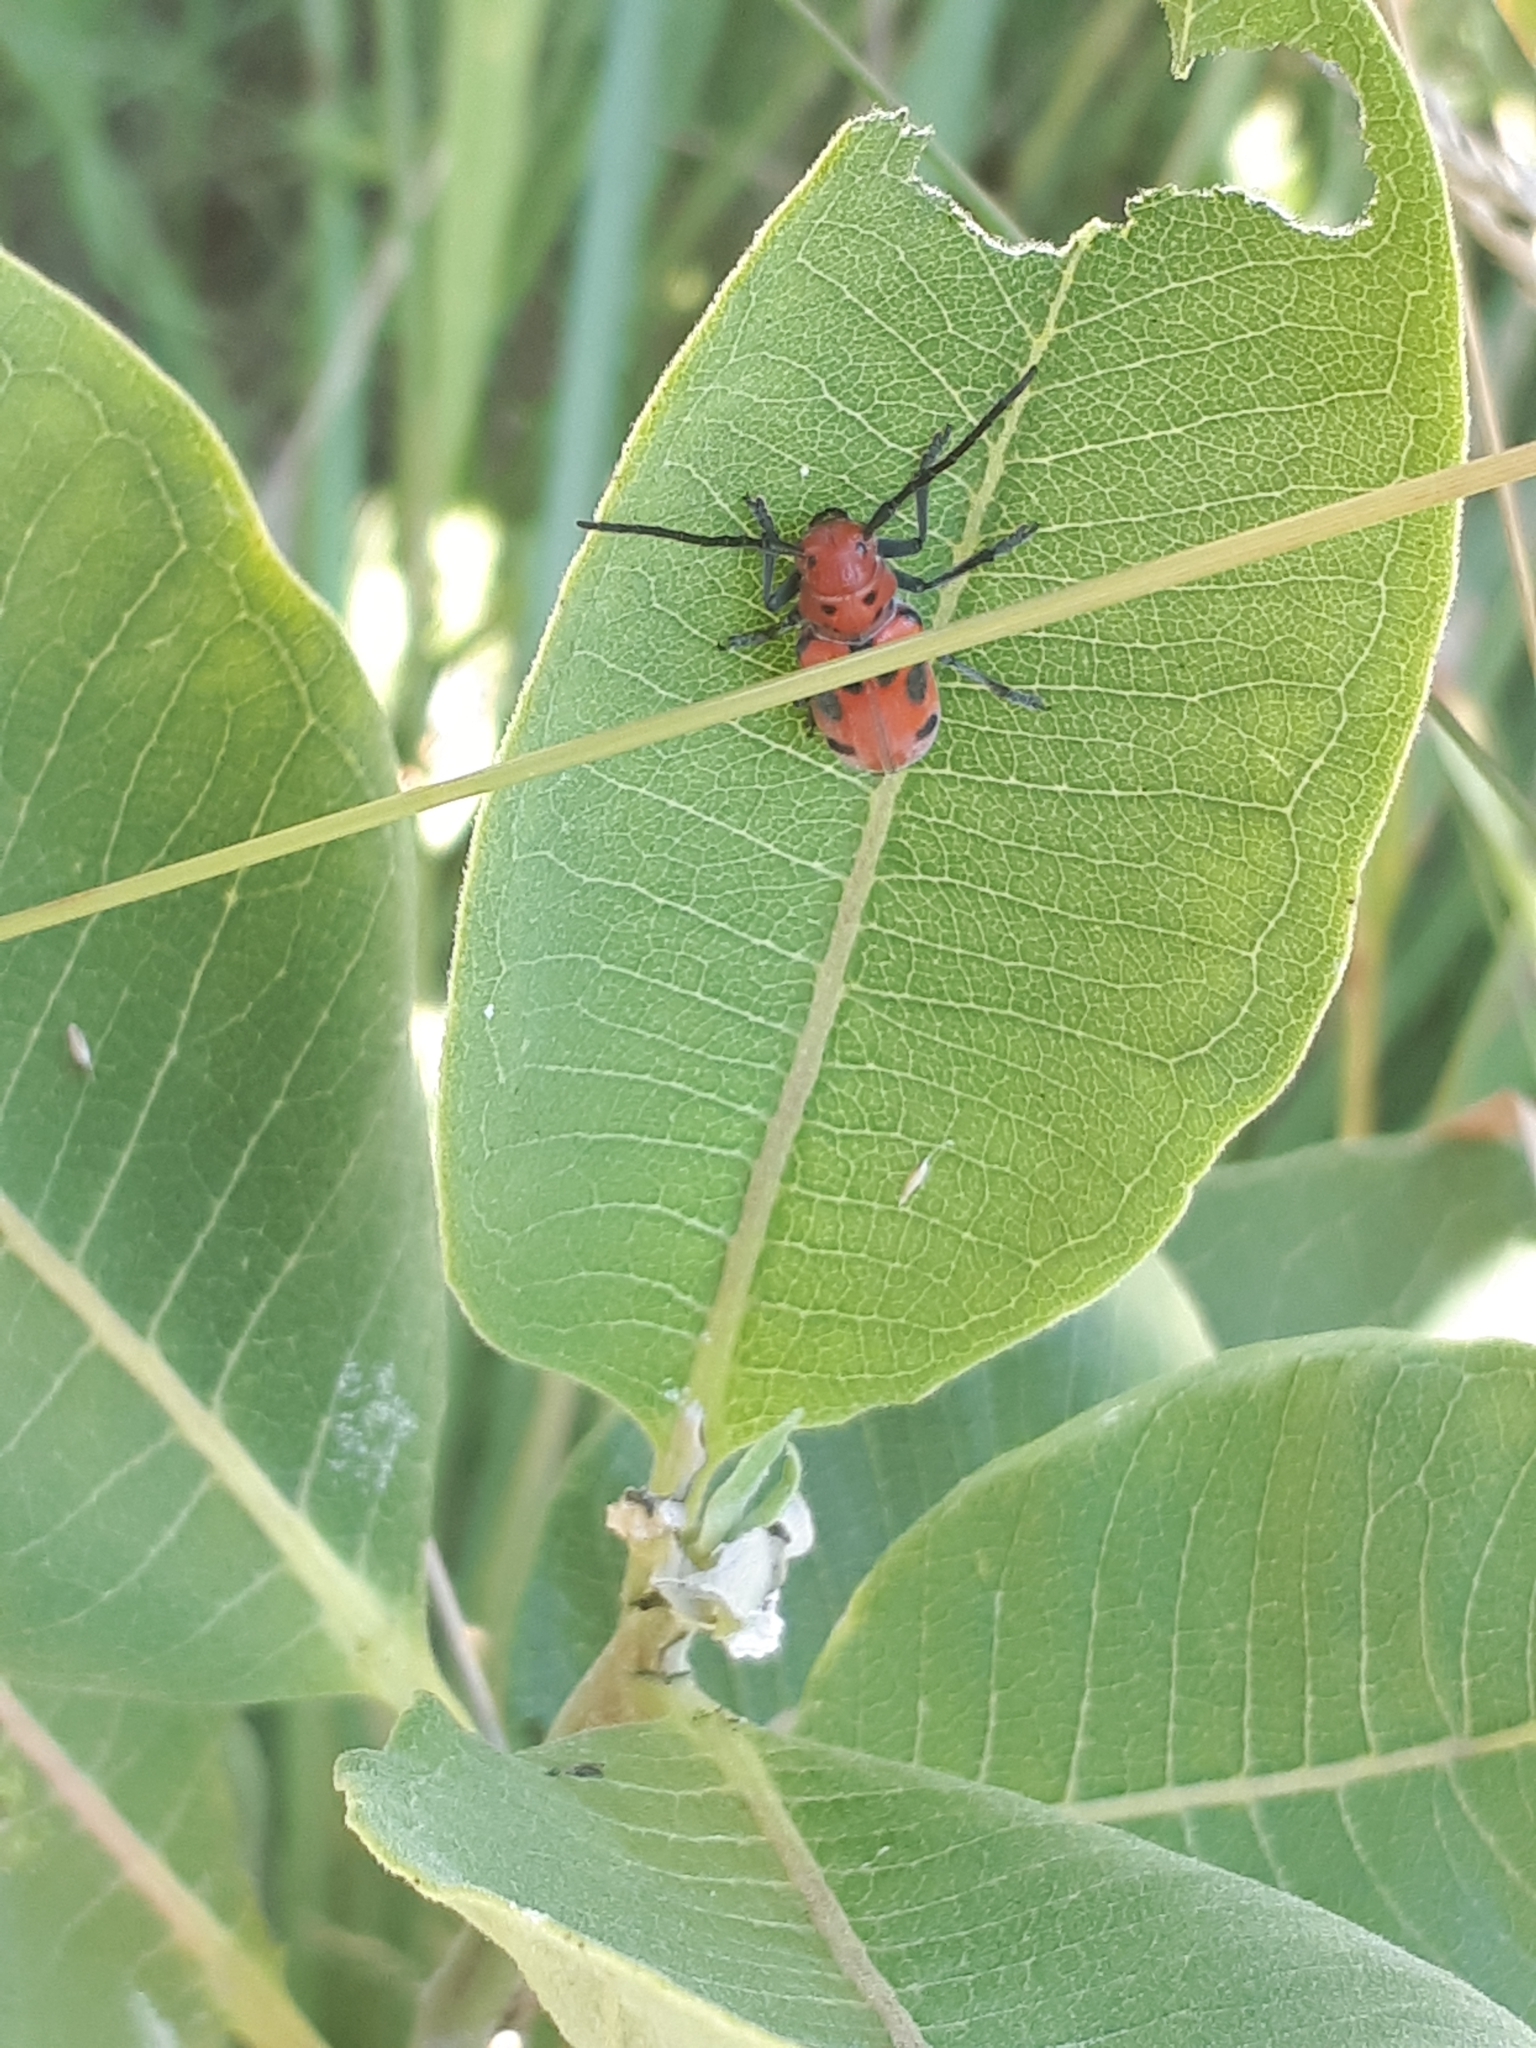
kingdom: Animalia
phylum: Arthropoda
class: Insecta
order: Coleoptera
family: Cerambycidae
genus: Tetraopes
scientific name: Tetraopes tetrophthalmus
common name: Red milkweed beetle
